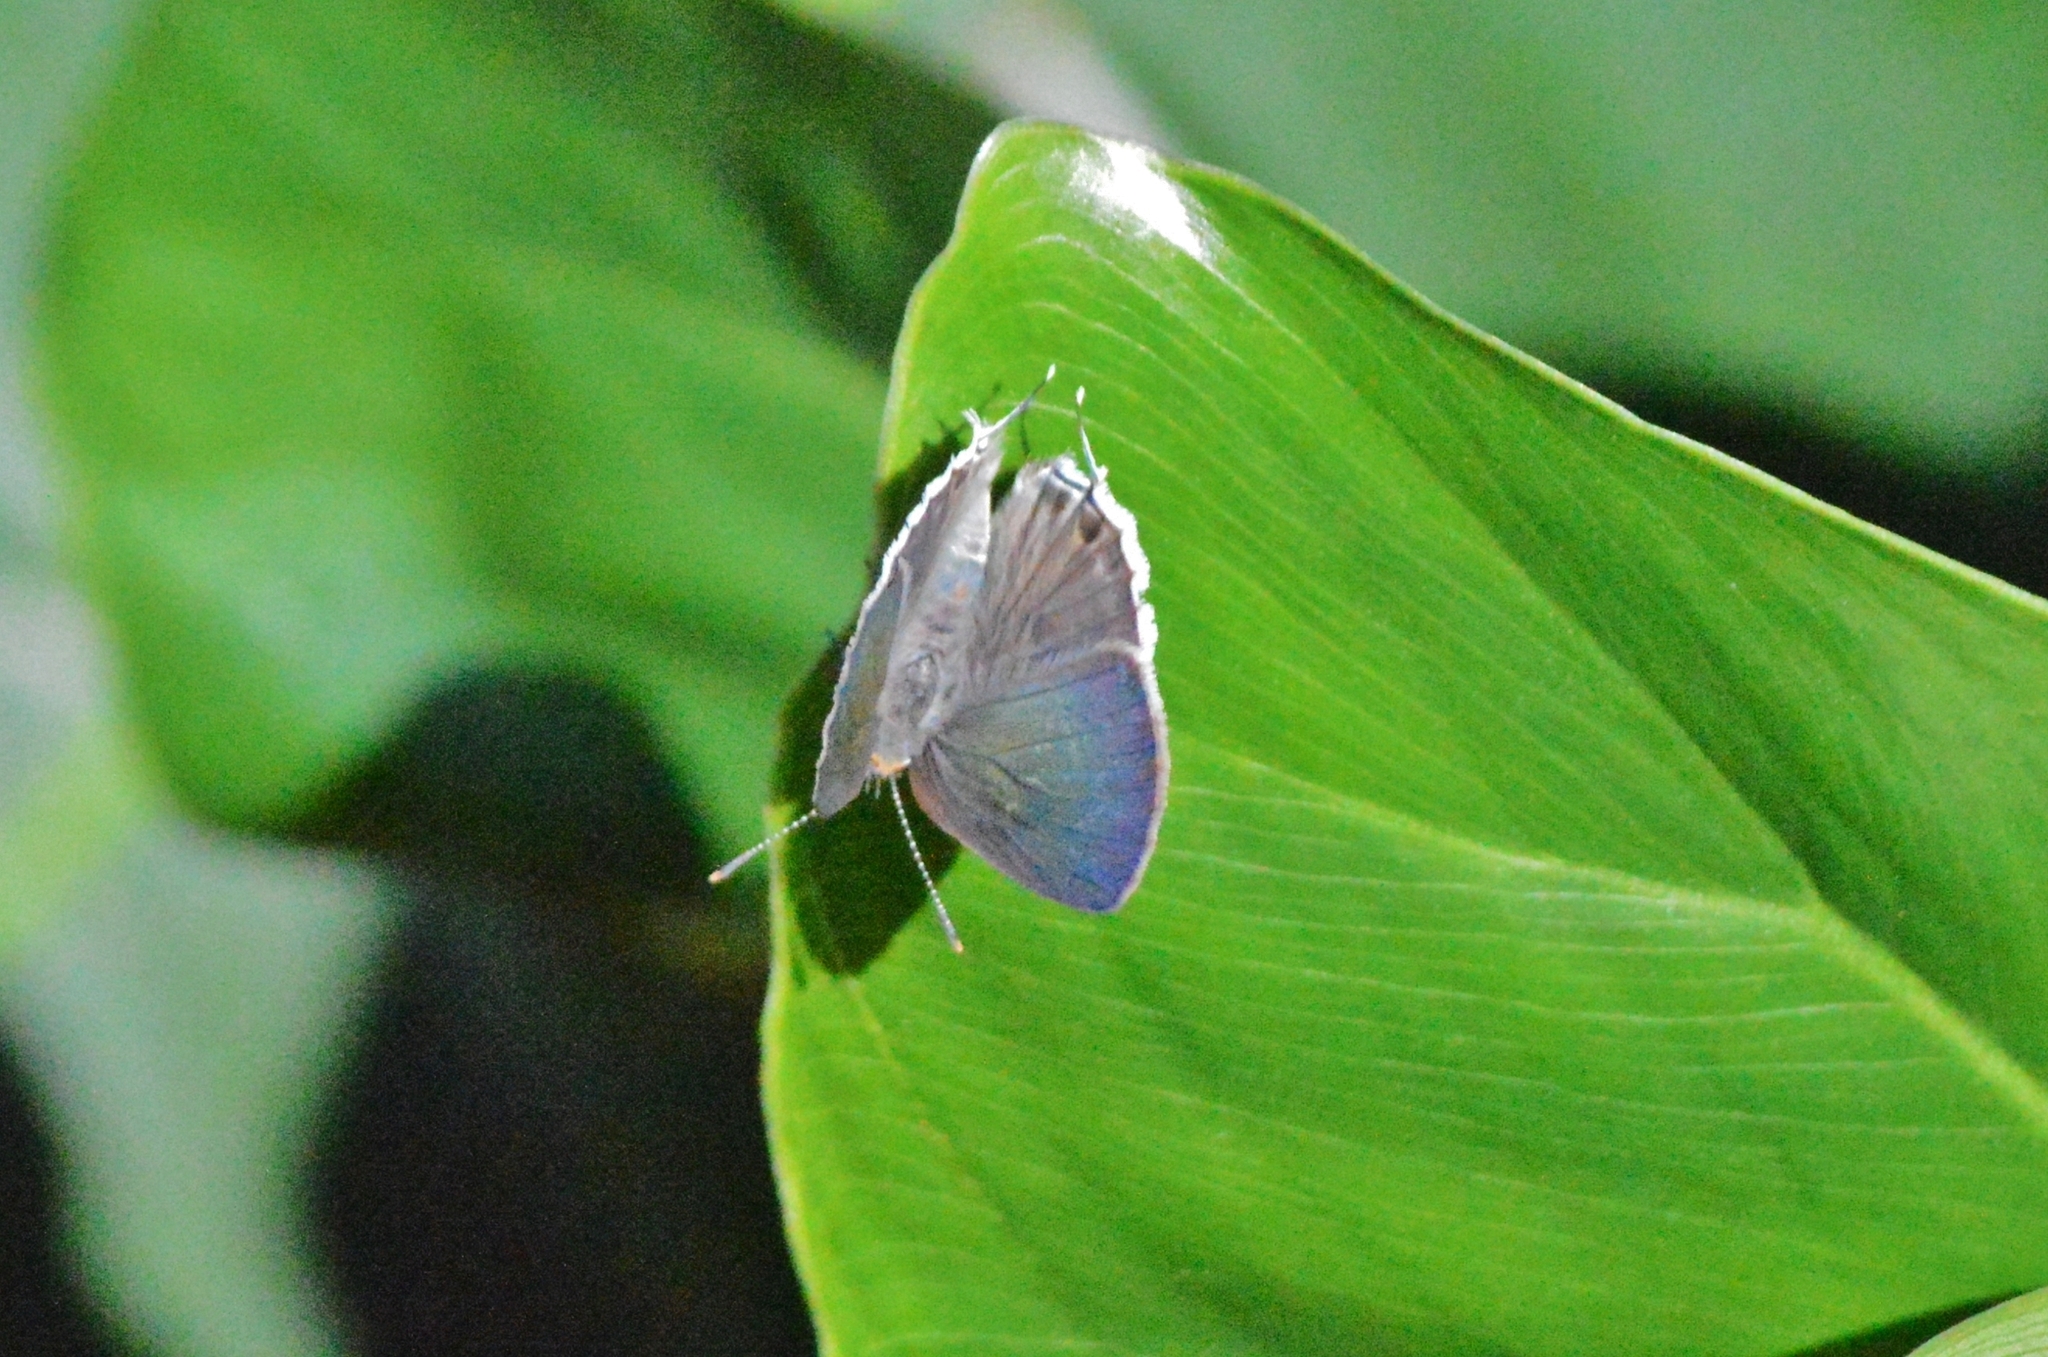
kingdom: Animalia
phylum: Arthropoda
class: Insecta
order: Lepidoptera
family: Lycaenidae
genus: Strymon
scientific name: Strymon mulucha
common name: Mottled scrub-hairstreak
